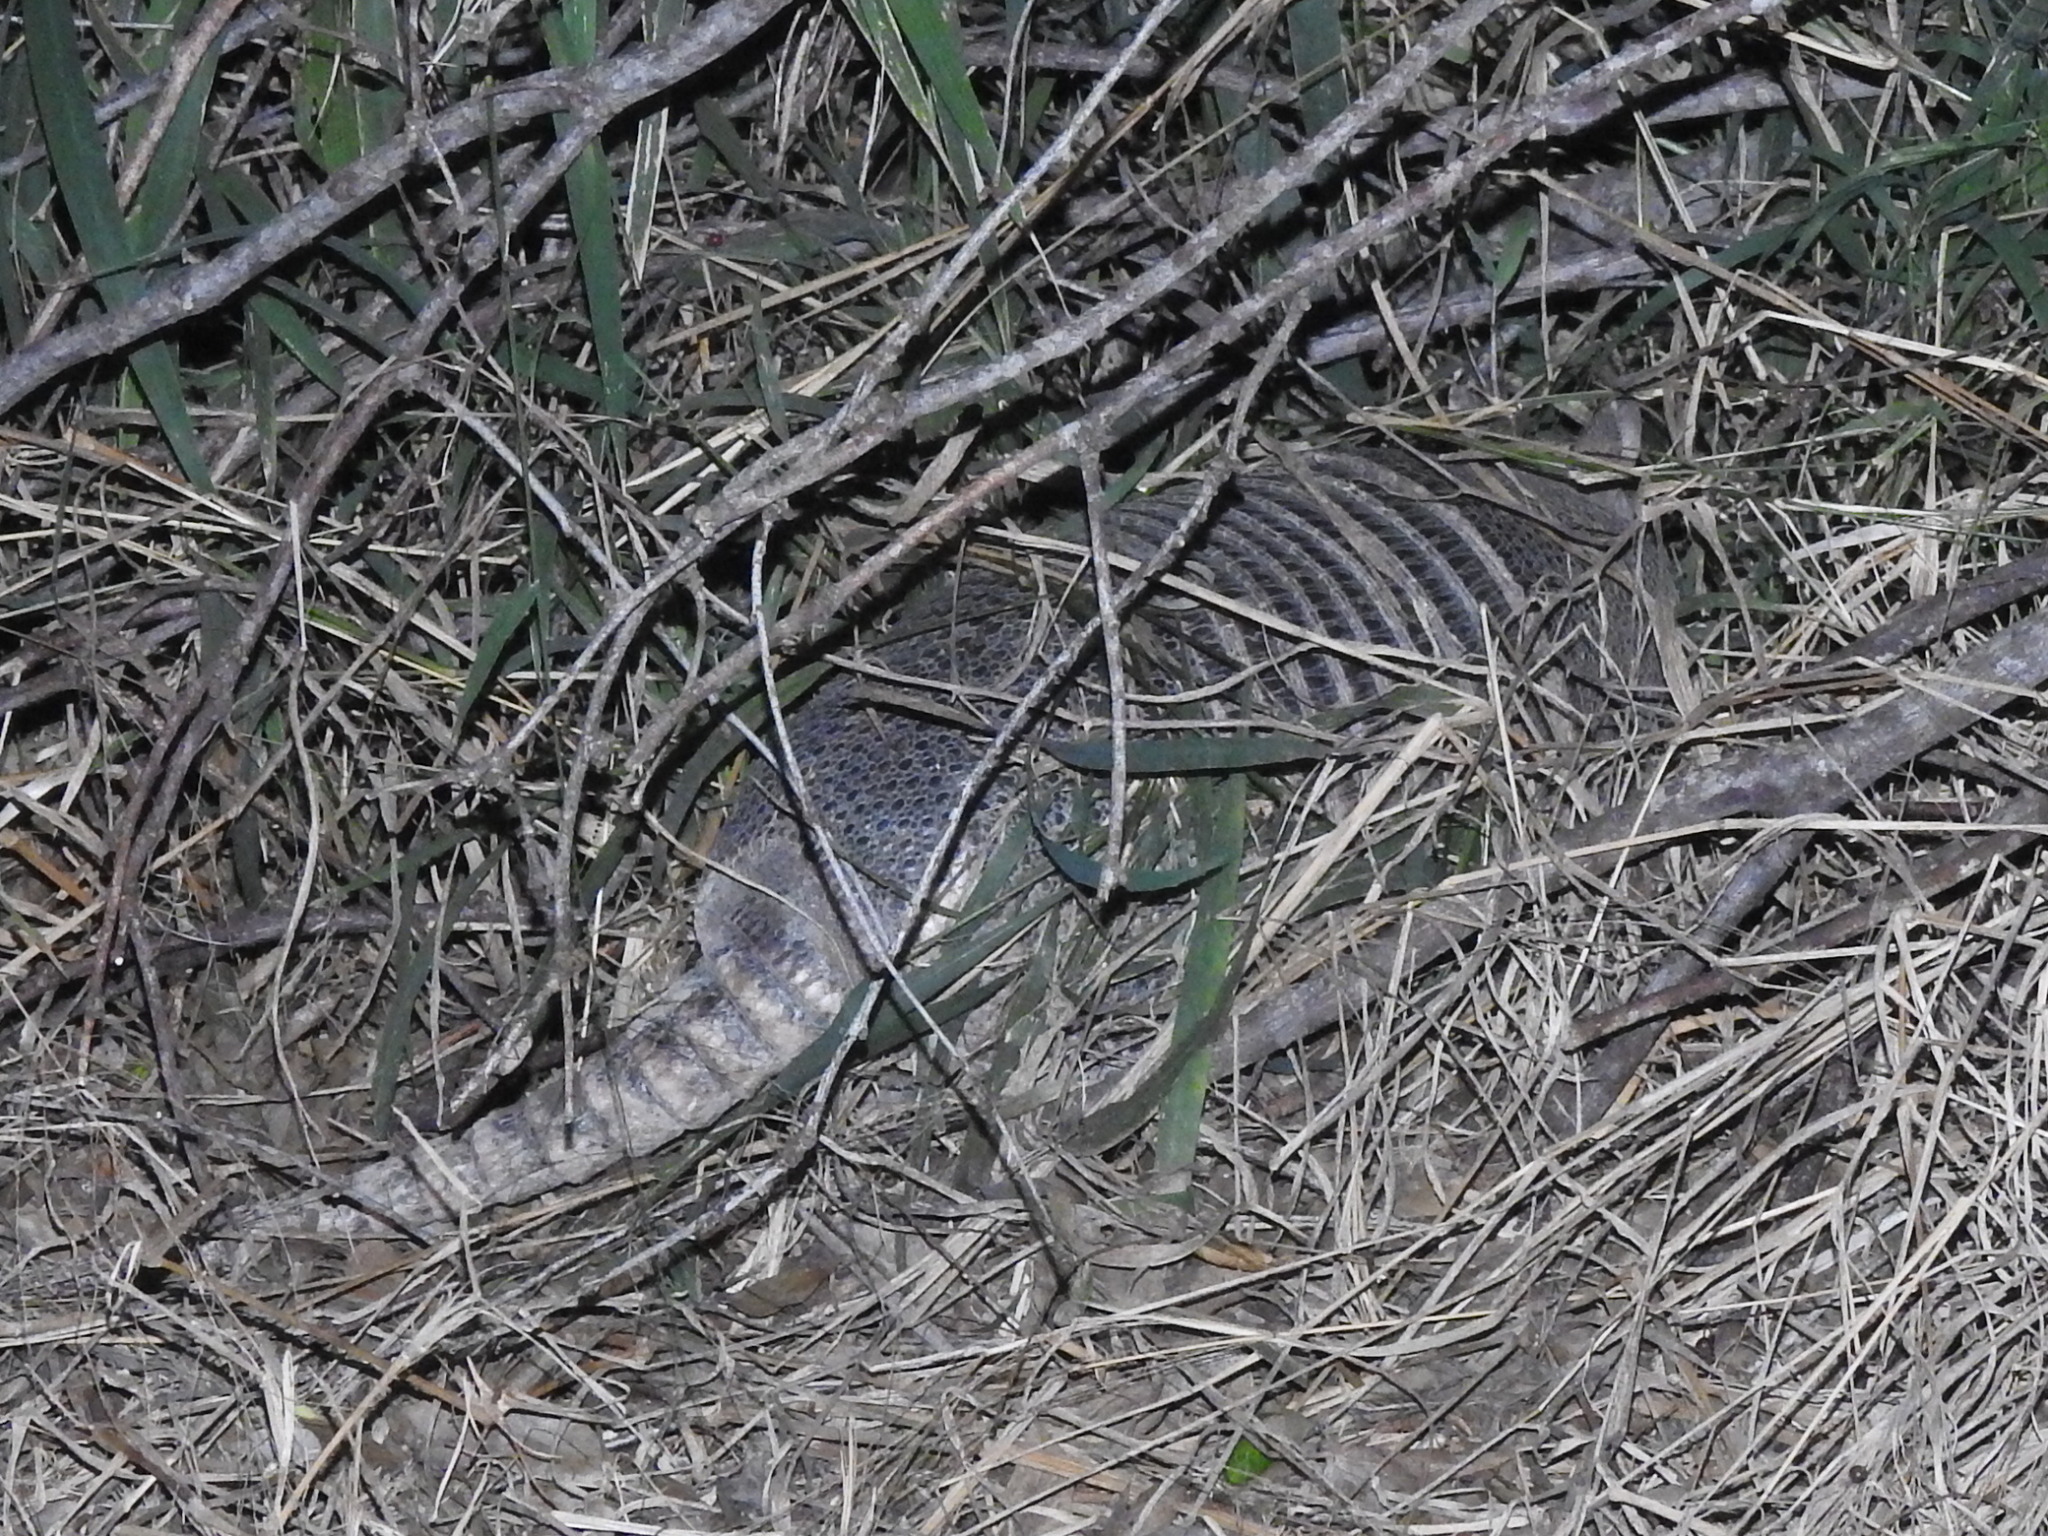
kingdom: Animalia
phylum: Chordata
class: Mammalia
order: Cingulata
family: Dasypodidae
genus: Dasypus
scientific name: Dasypus novemcinctus
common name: Nine-banded armadillo
